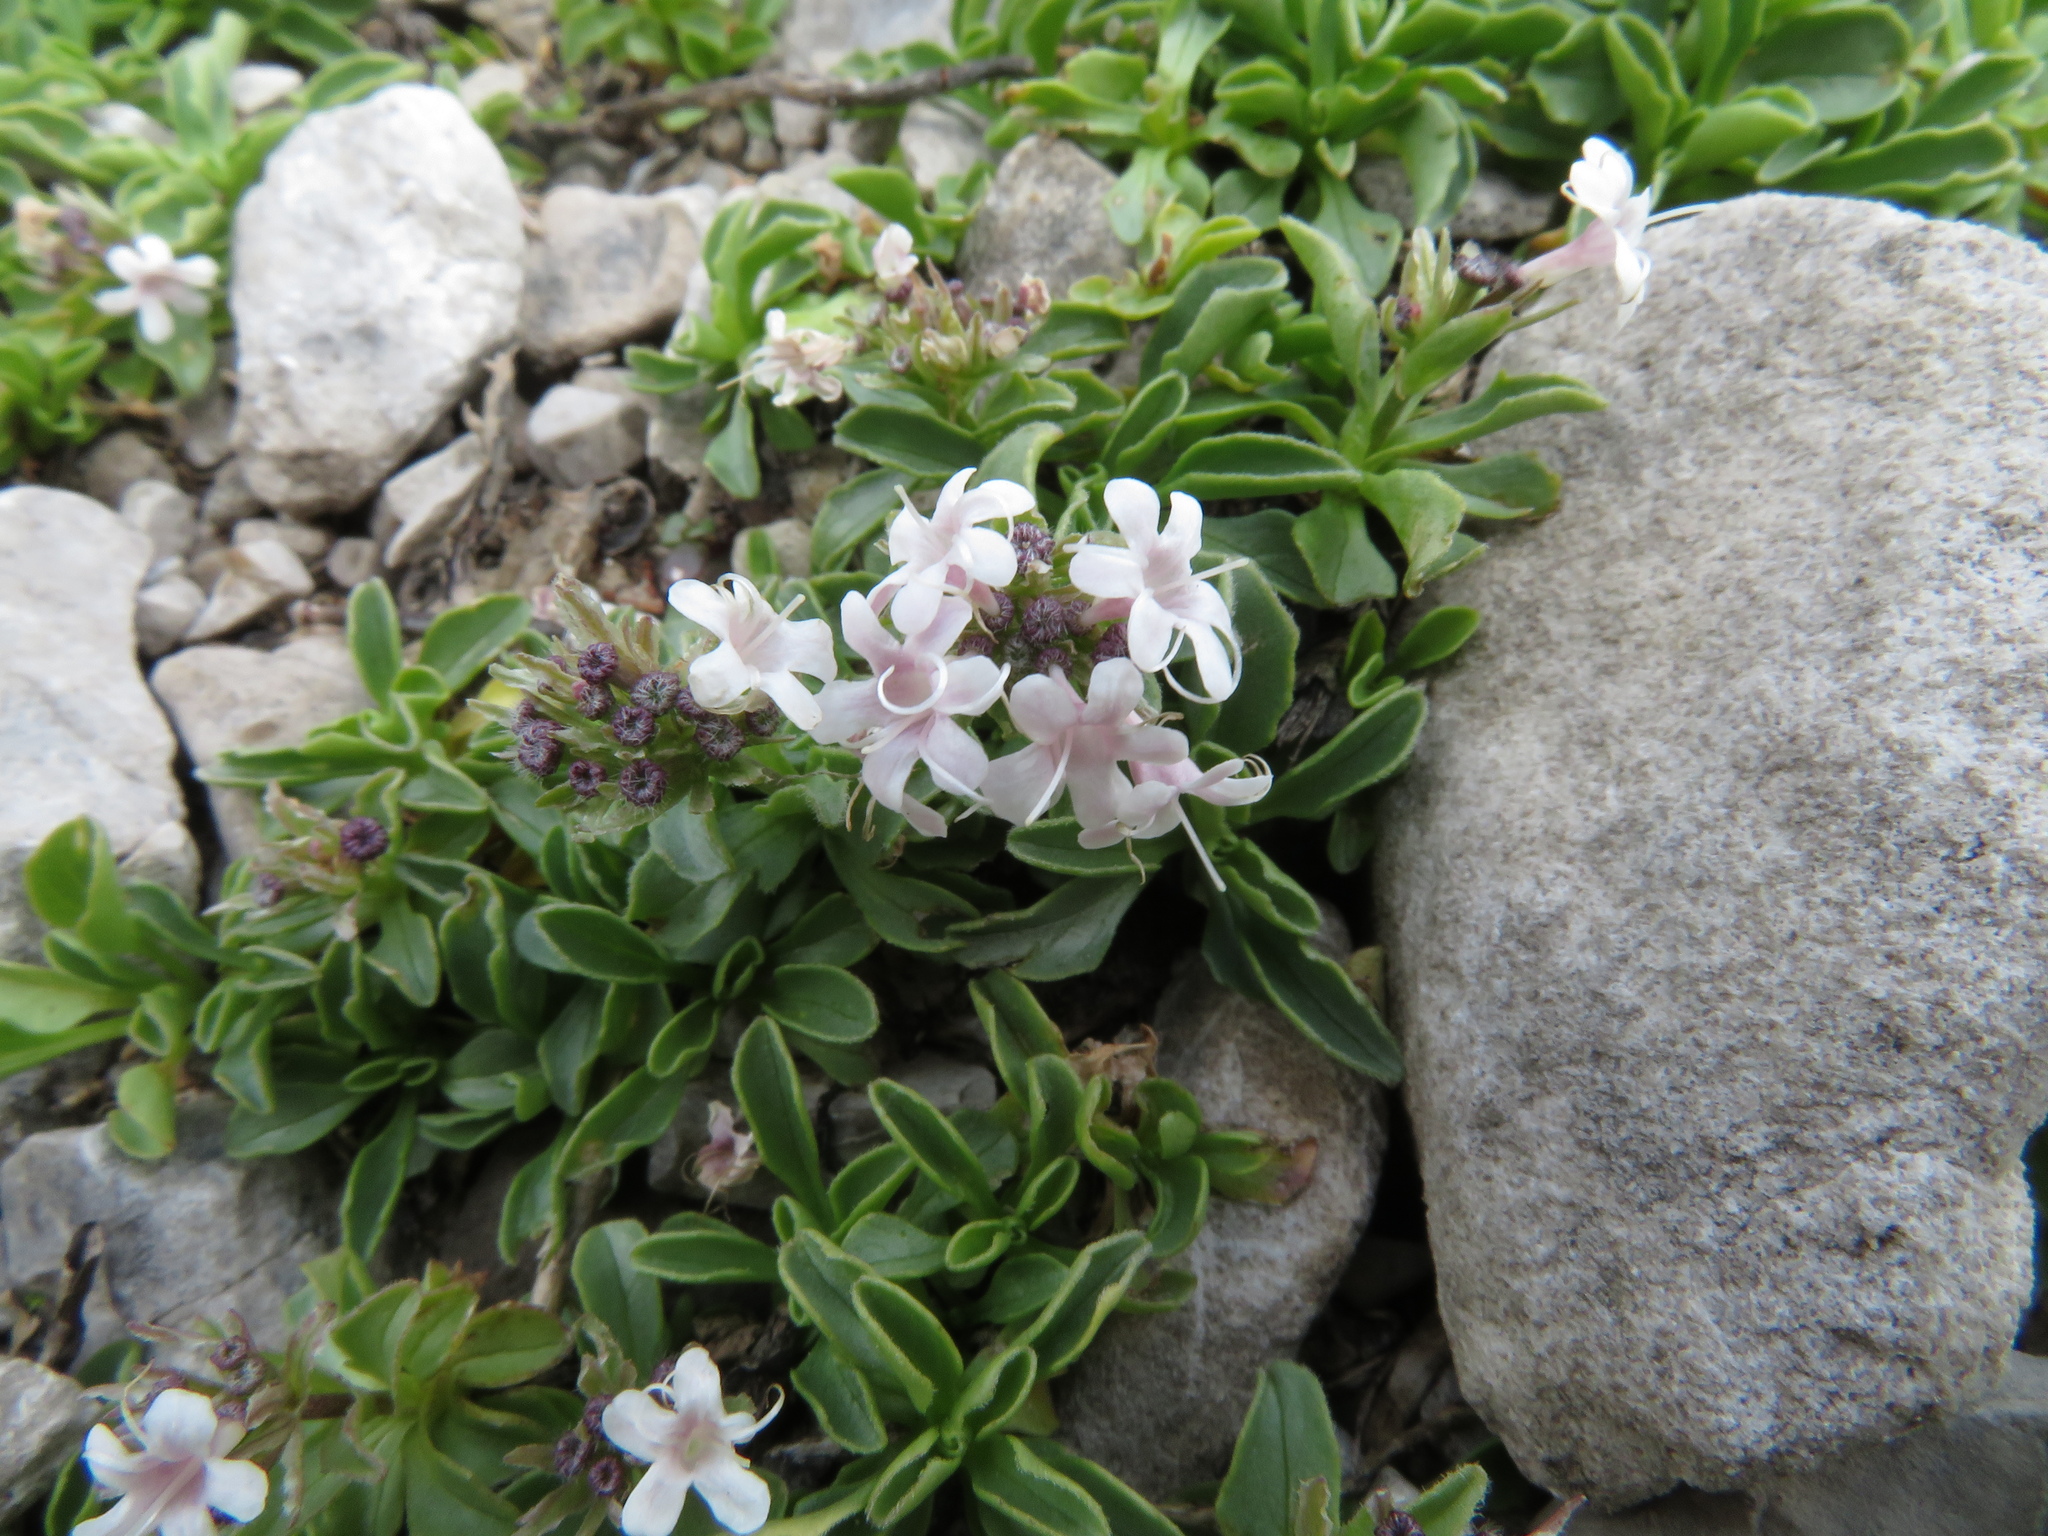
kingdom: Plantae
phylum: Tracheophyta
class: Magnoliopsida
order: Dipsacales
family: Caprifoliaceae
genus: Valeriana
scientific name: Valeriana supina
